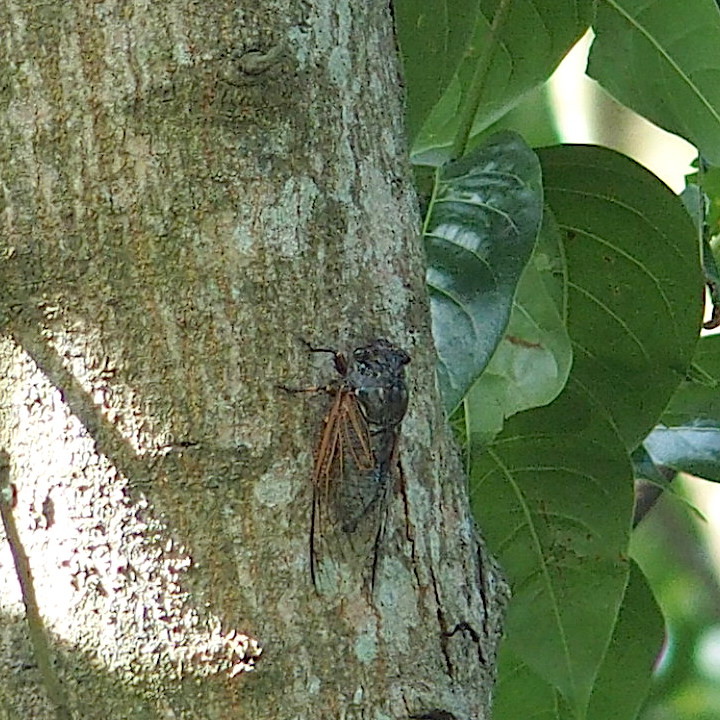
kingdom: Animalia
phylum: Arthropoda
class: Insecta
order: Hemiptera
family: Cicadidae
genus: Cryptotympana
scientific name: Cryptotympana atrata
